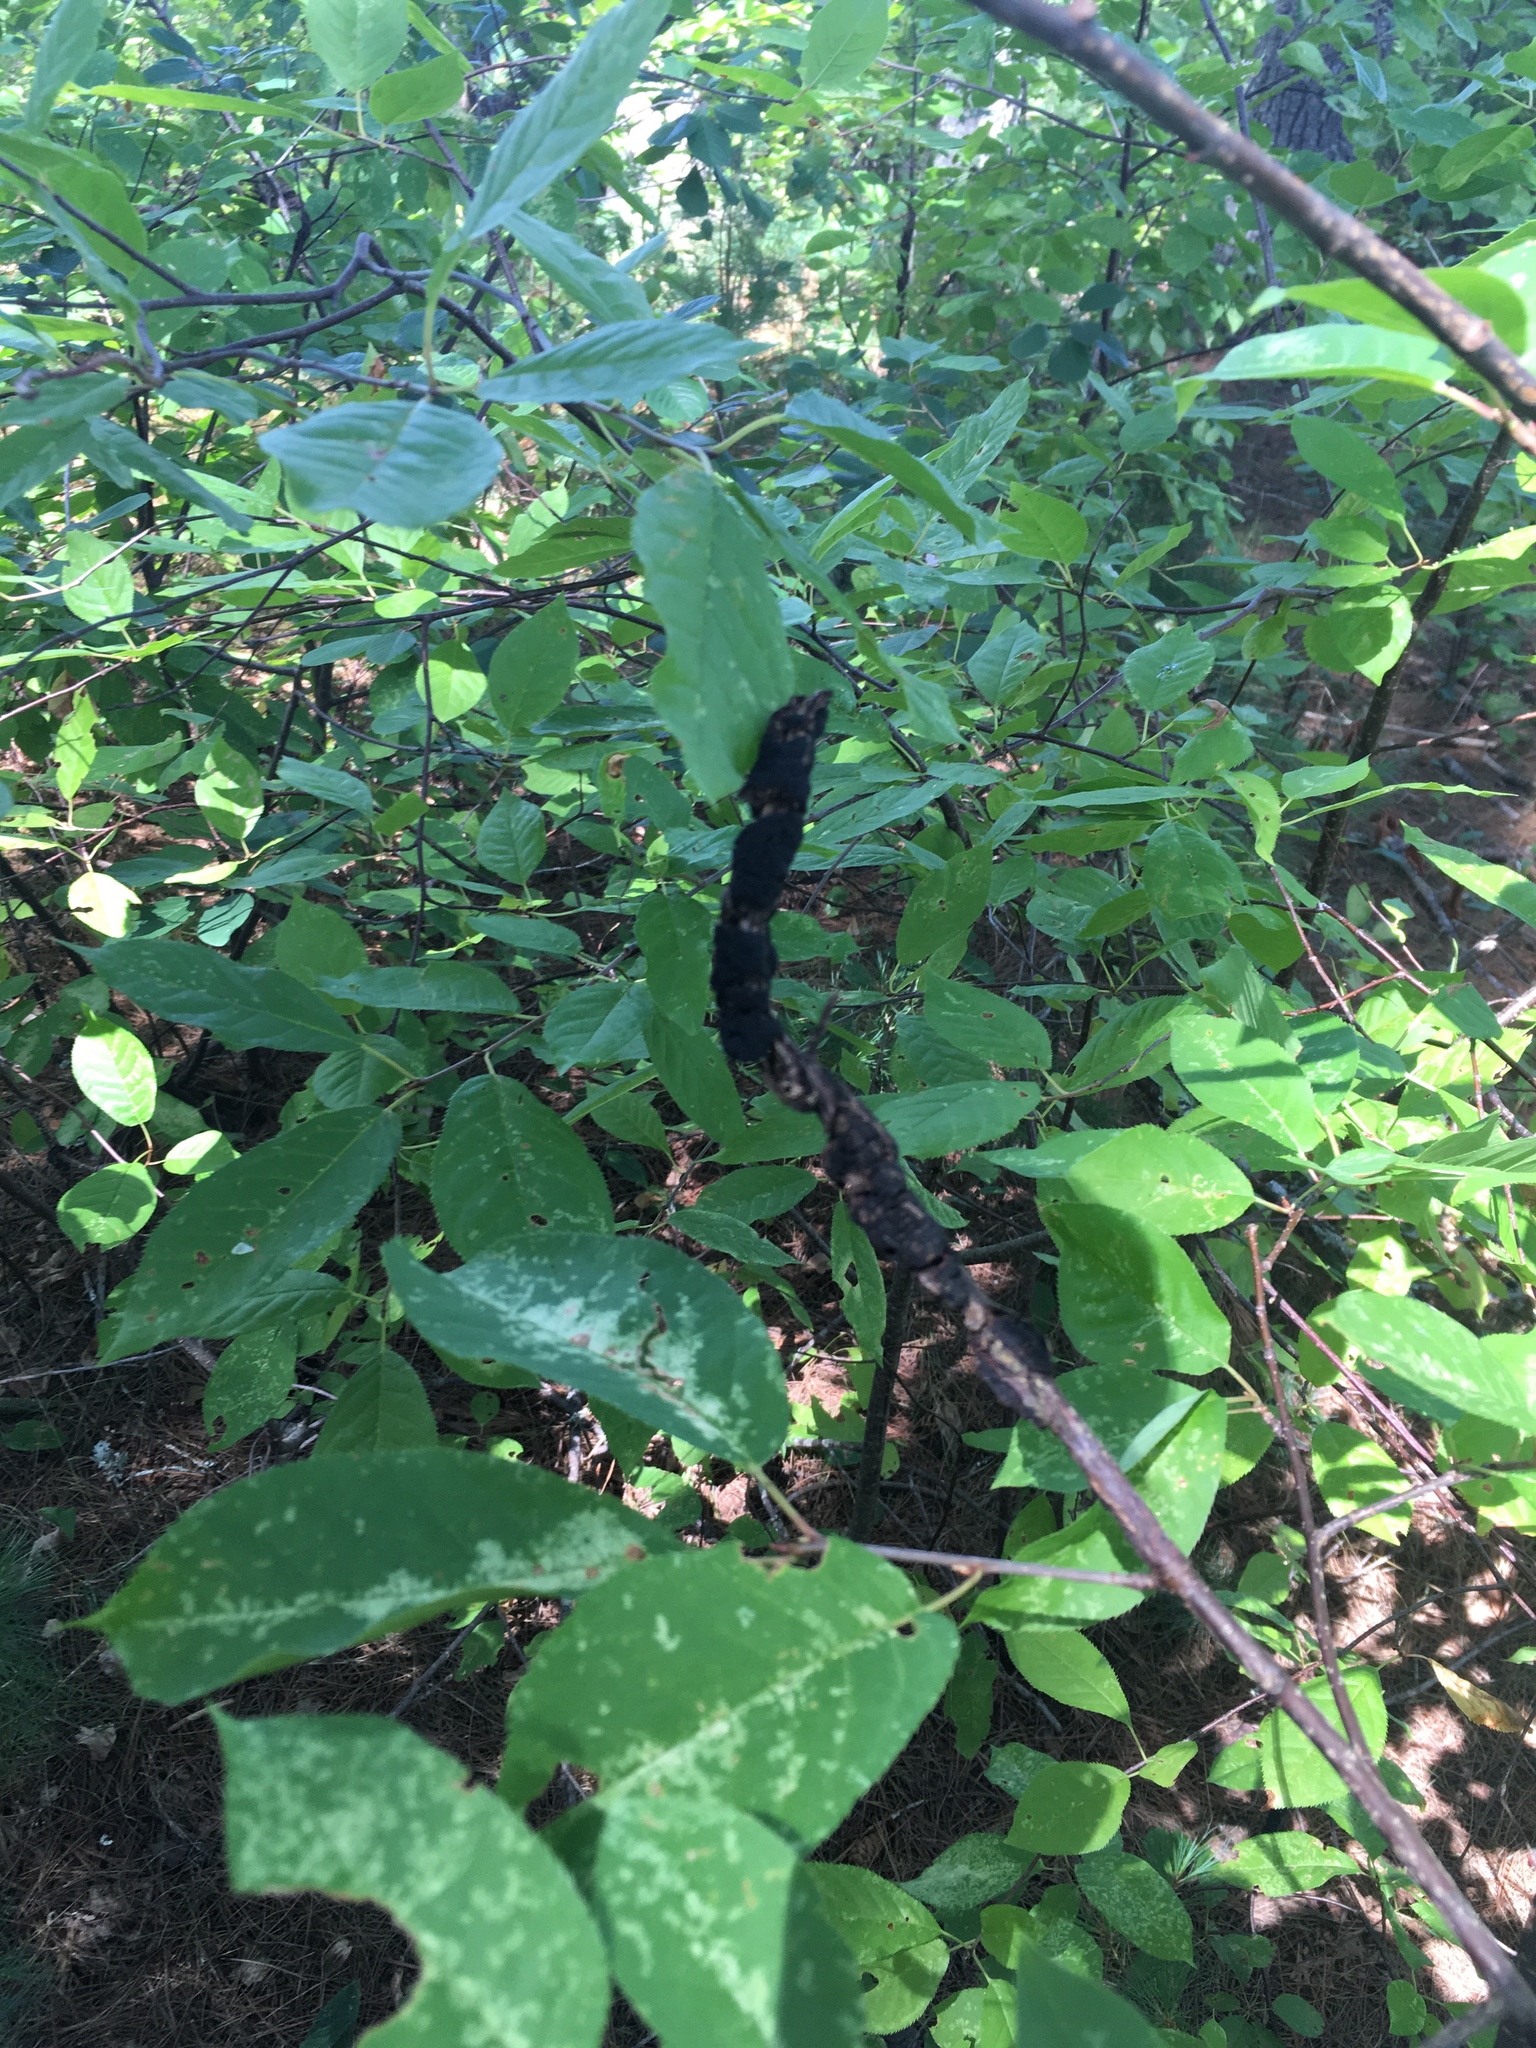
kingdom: Fungi
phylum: Ascomycota
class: Dothideomycetes
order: Venturiales
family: Venturiaceae
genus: Apiosporina
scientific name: Apiosporina morbosa
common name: Black knot
